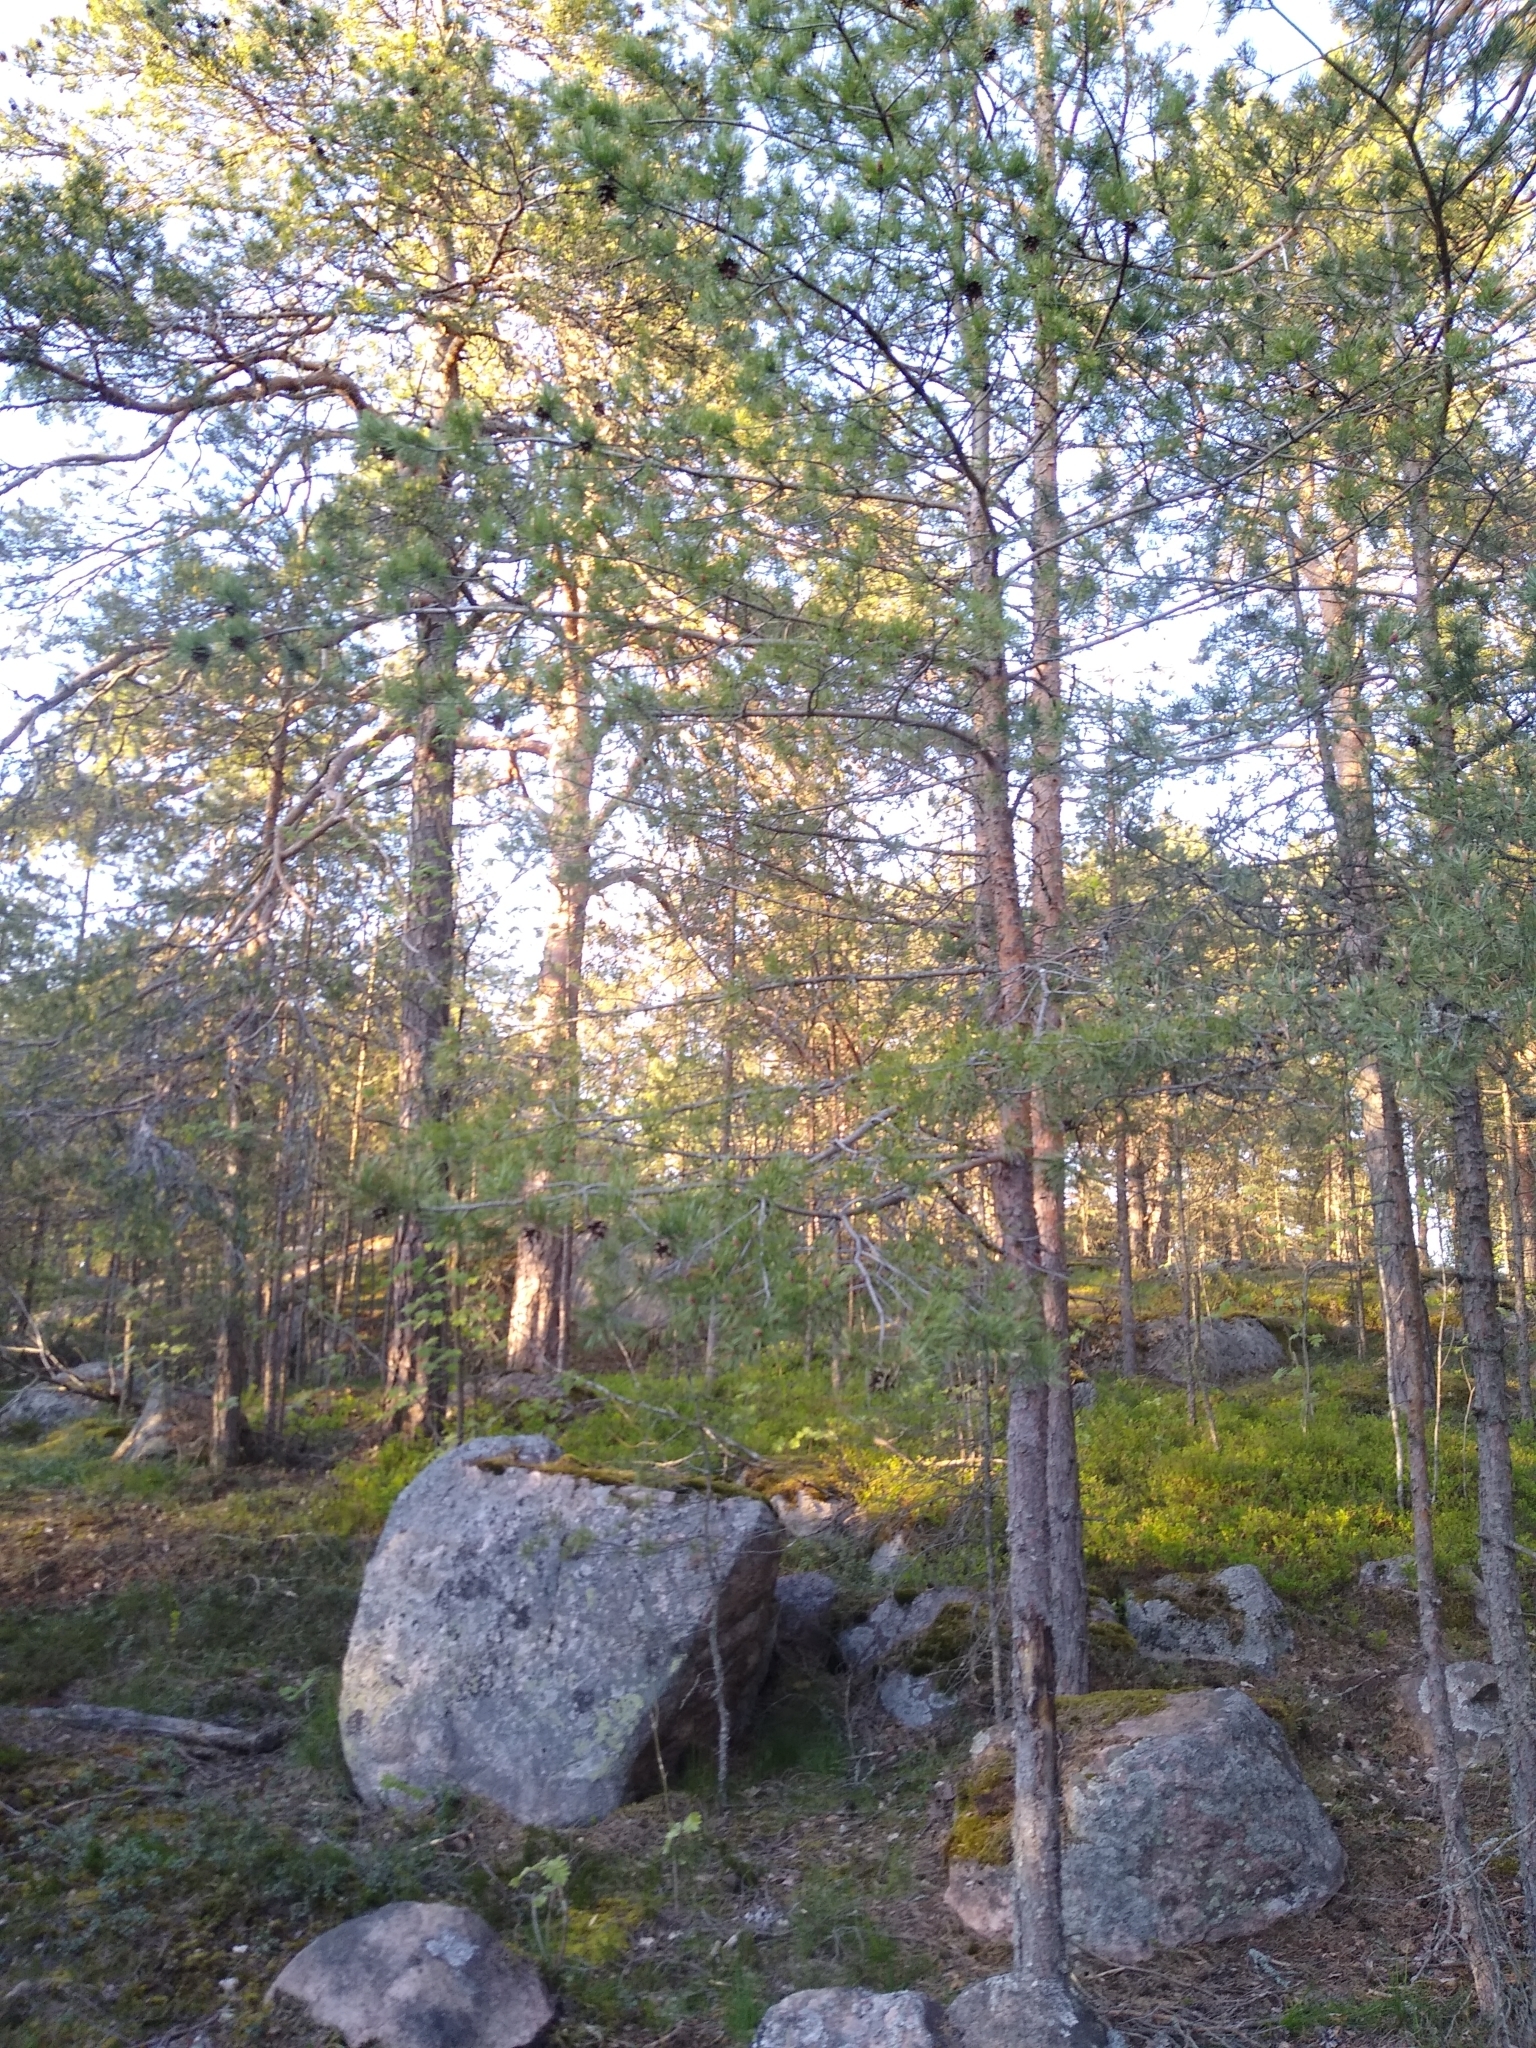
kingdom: Plantae
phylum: Tracheophyta
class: Pinopsida
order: Pinales
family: Pinaceae
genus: Pinus
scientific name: Pinus sylvestris
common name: Scots pine
